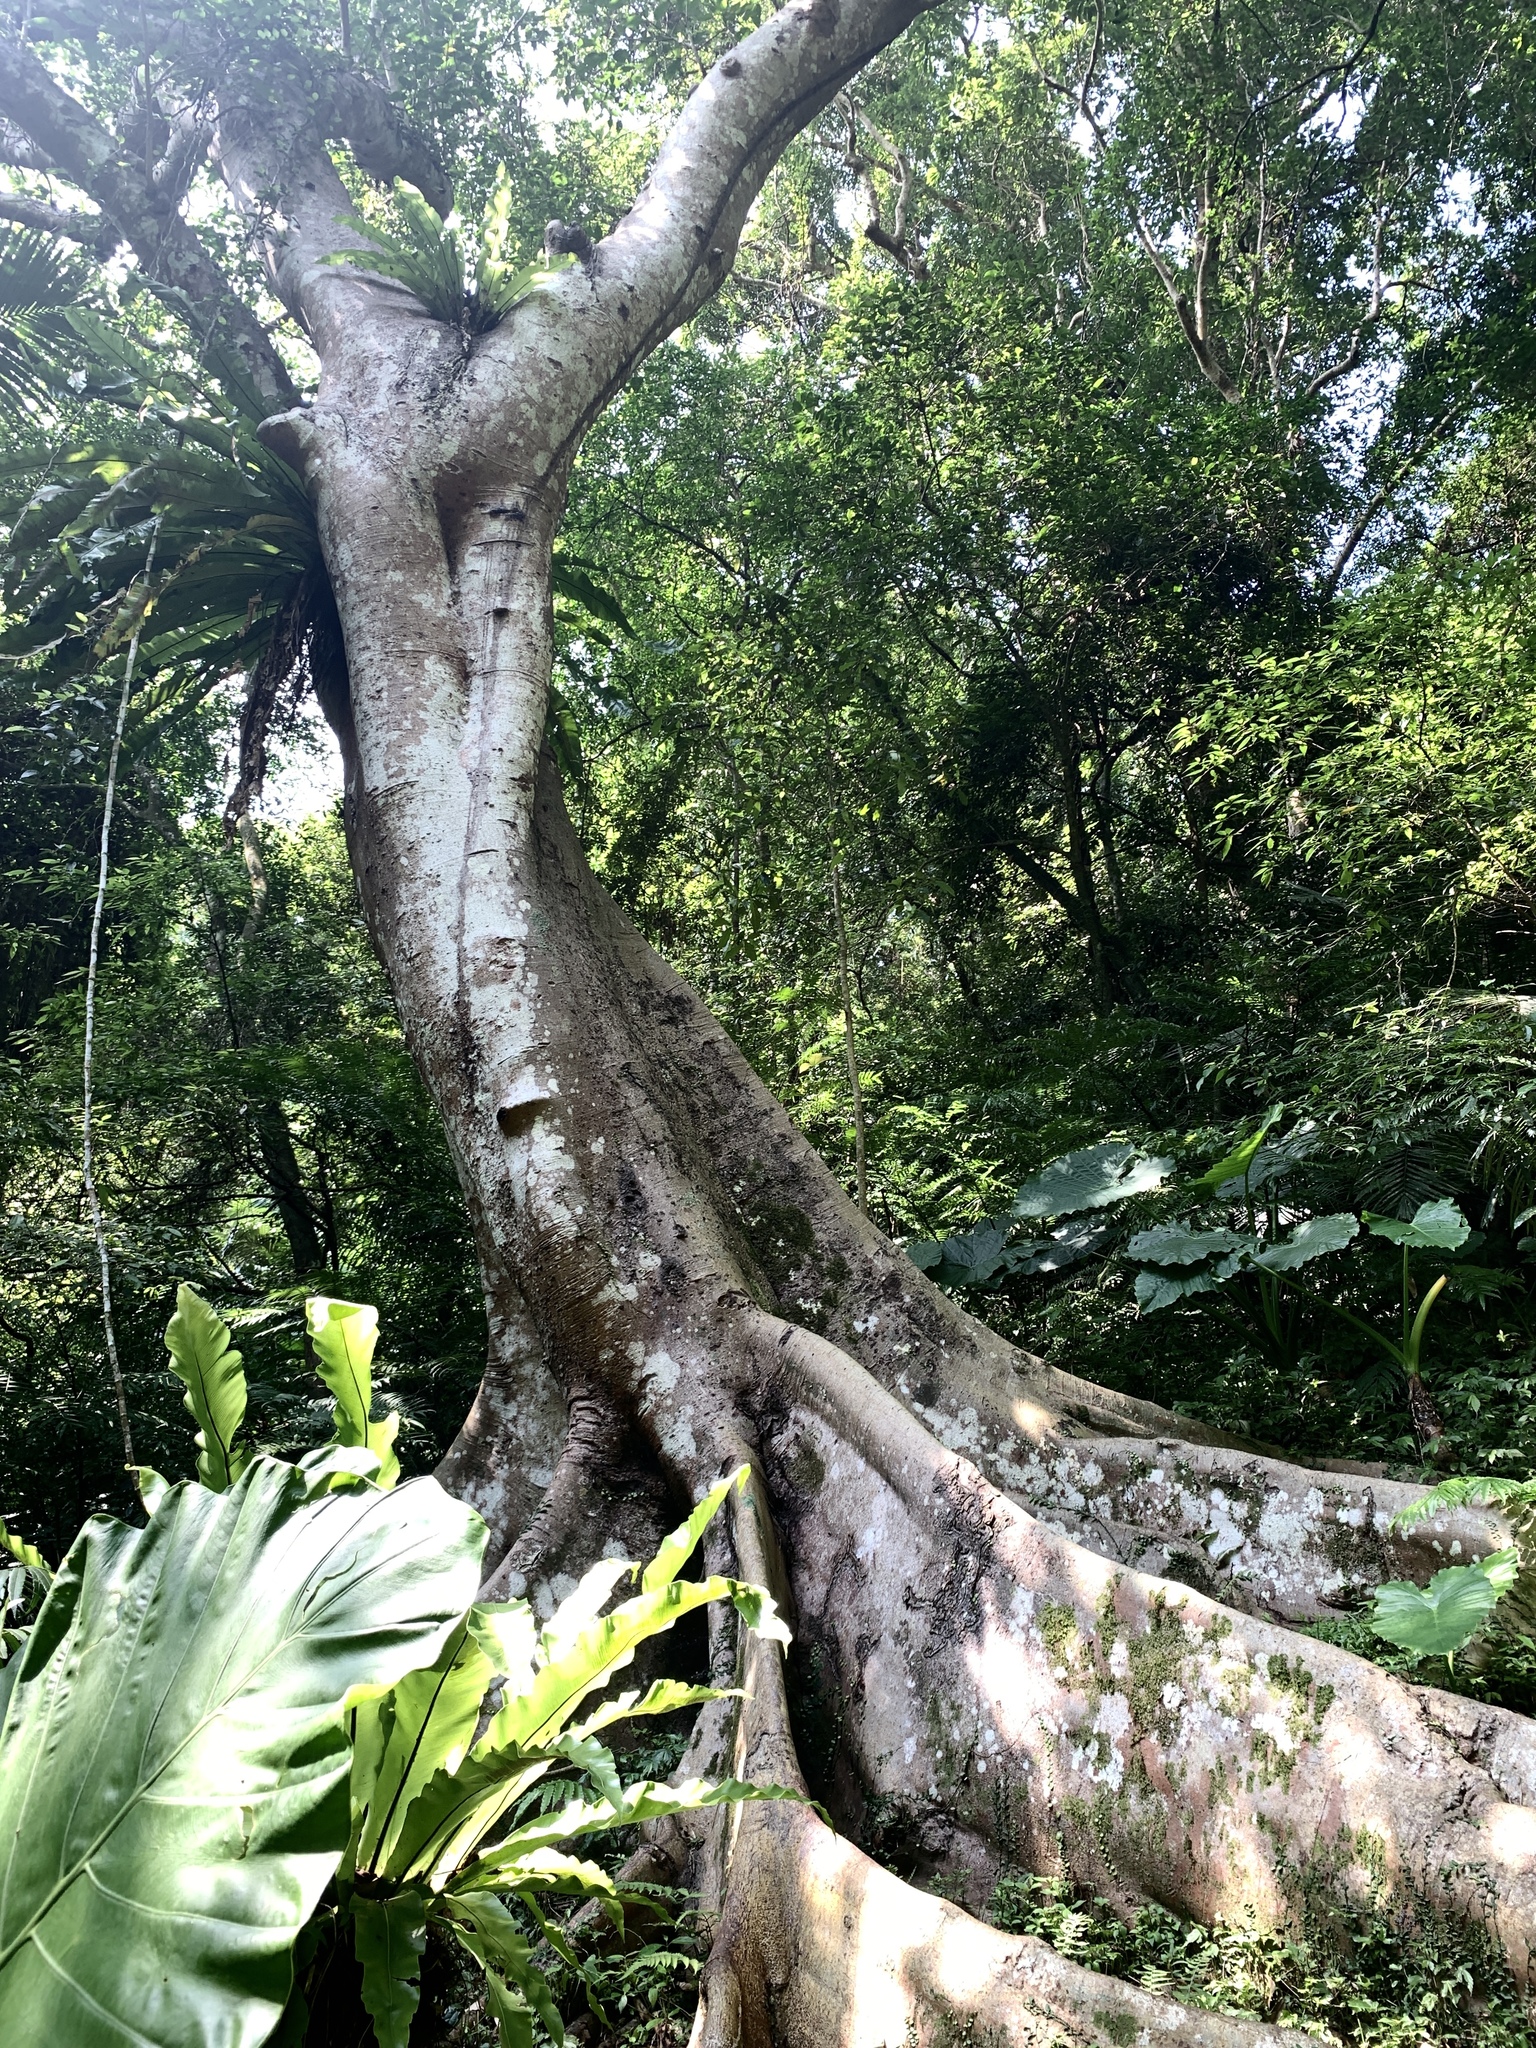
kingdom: Plantae
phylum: Tracheophyta
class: Magnoliopsida
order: Rosales
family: Moraceae
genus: Ficus
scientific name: Ficus variegata
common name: Variegated fig
